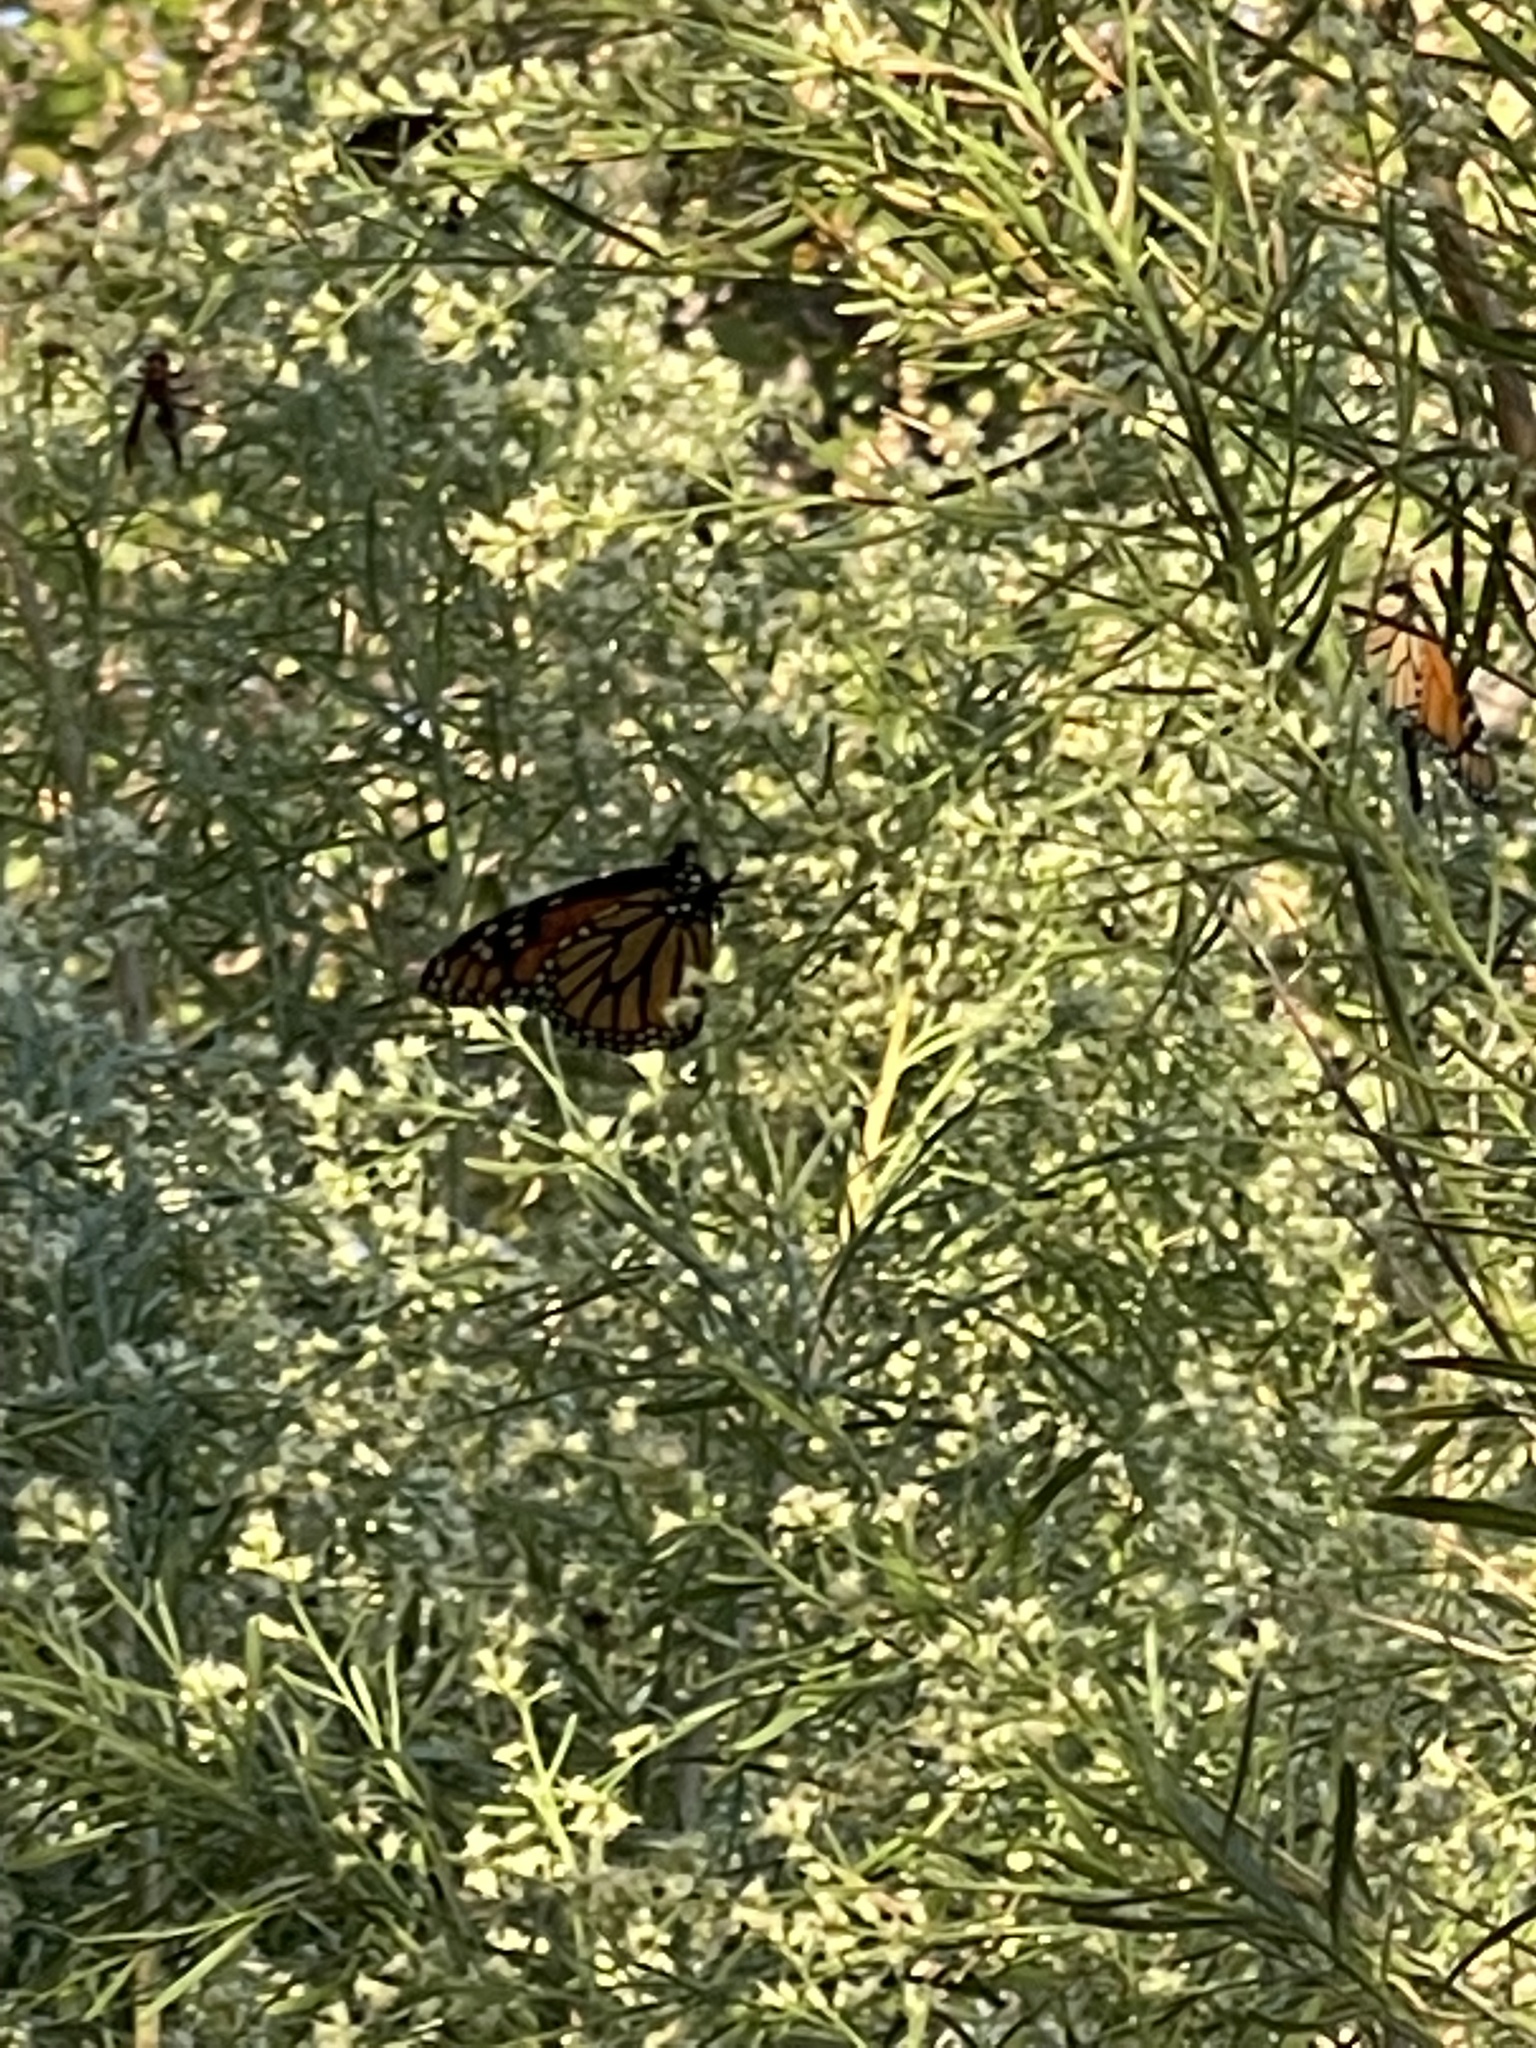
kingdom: Animalia
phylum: Arthropoda
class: Insecta
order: Lepidoptera
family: Nymphalidae
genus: Danaus
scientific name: Danaus plexippus
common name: Monarch
